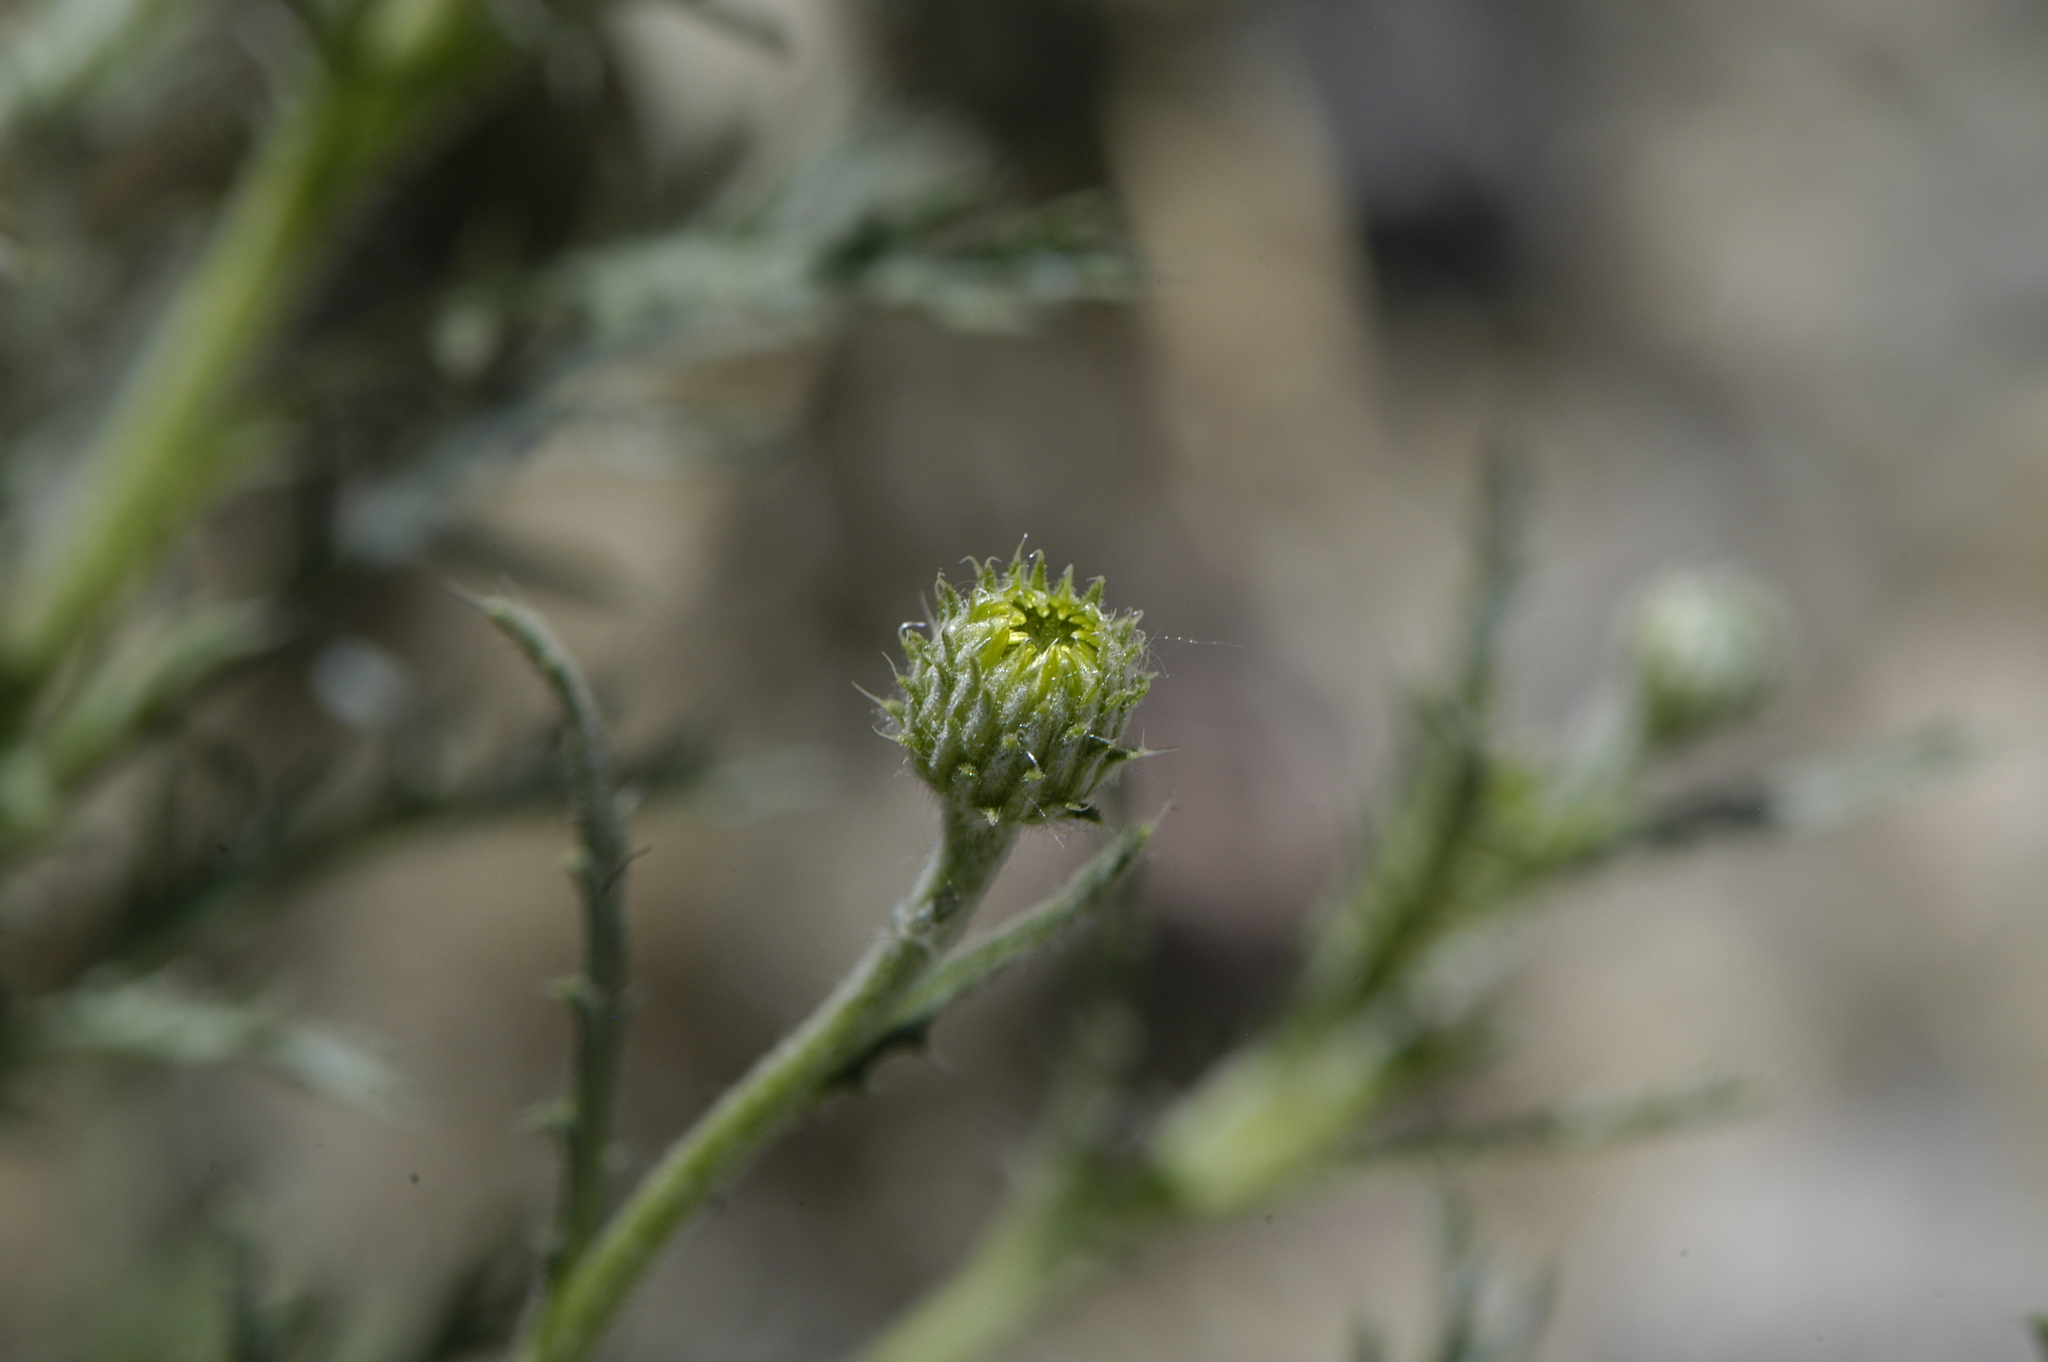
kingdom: Plantae
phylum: Tracheophyta
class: Magnoliopsida
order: Asterales
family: Asteraceae
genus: Xanthisma
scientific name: Xanthisma spinulosum
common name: Spiny goldenweed
